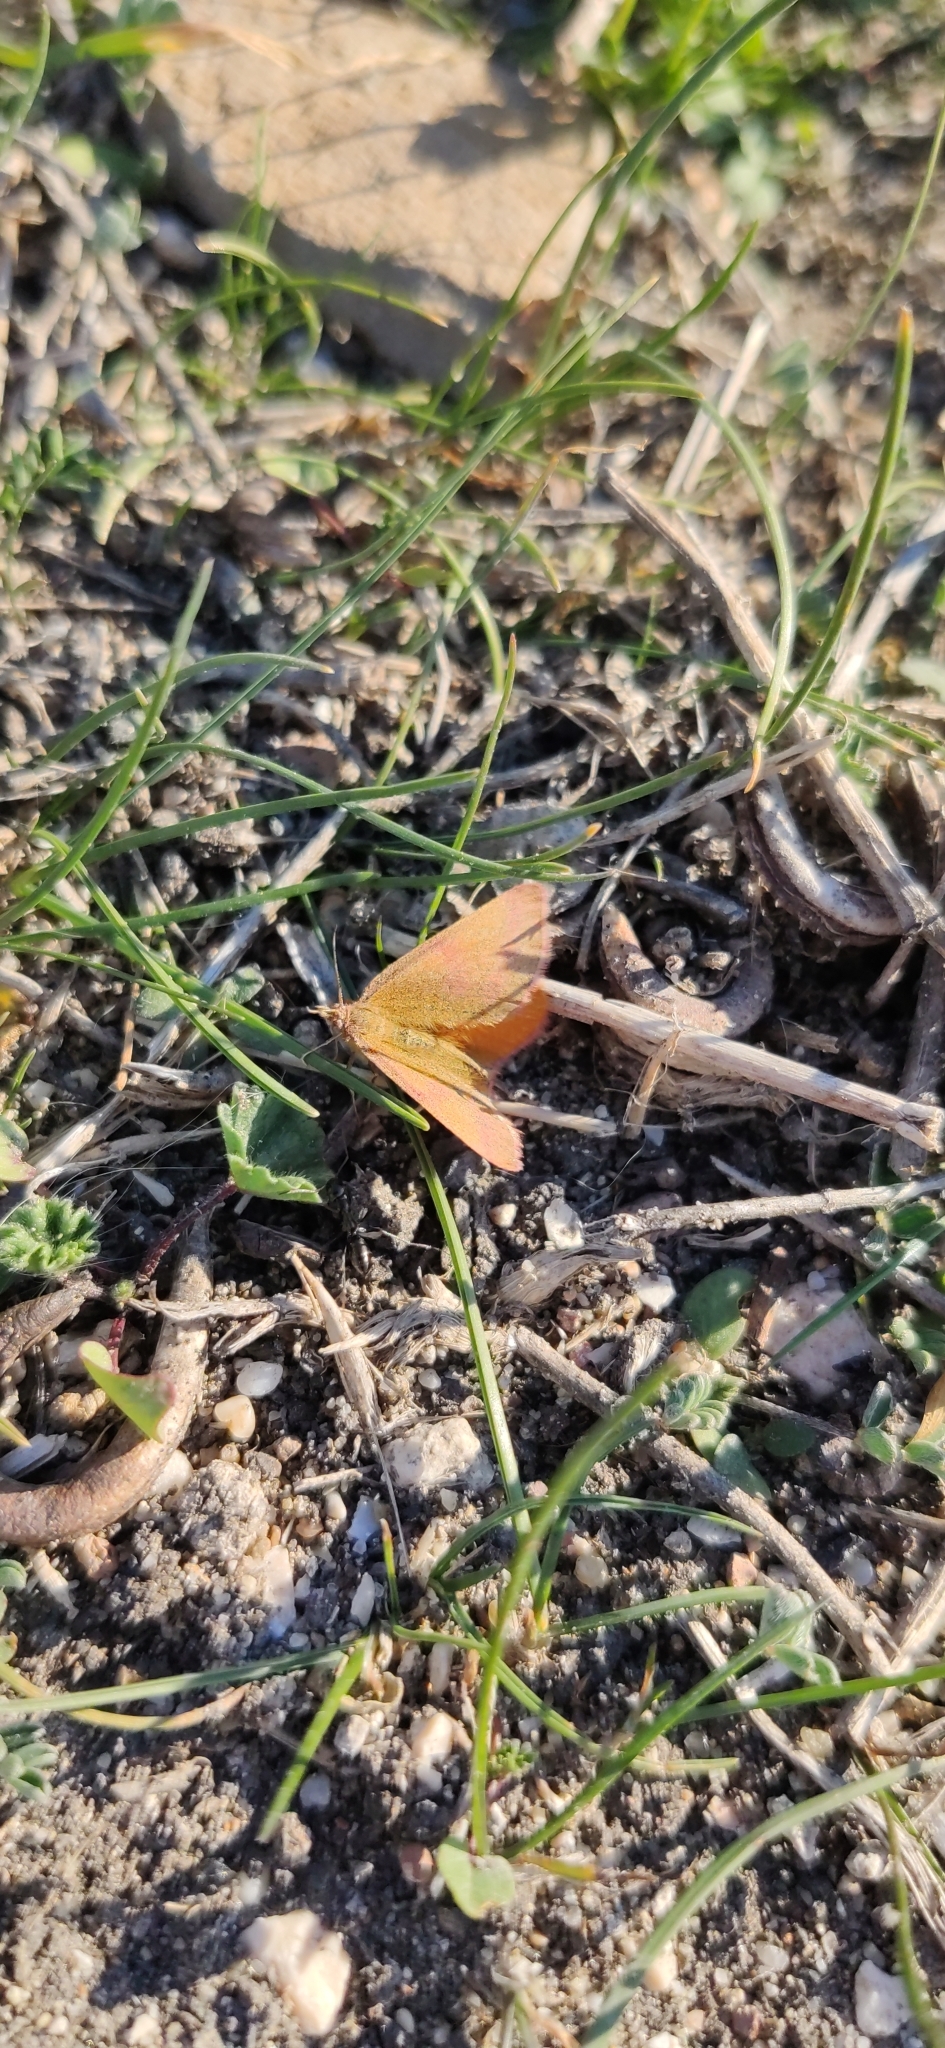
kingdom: Animalia
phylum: Arthropoda
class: Insecta
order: Lepidoptera
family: Geometridae
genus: Lythria
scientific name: Lythria purpuraria
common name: Purple-barred yellow
